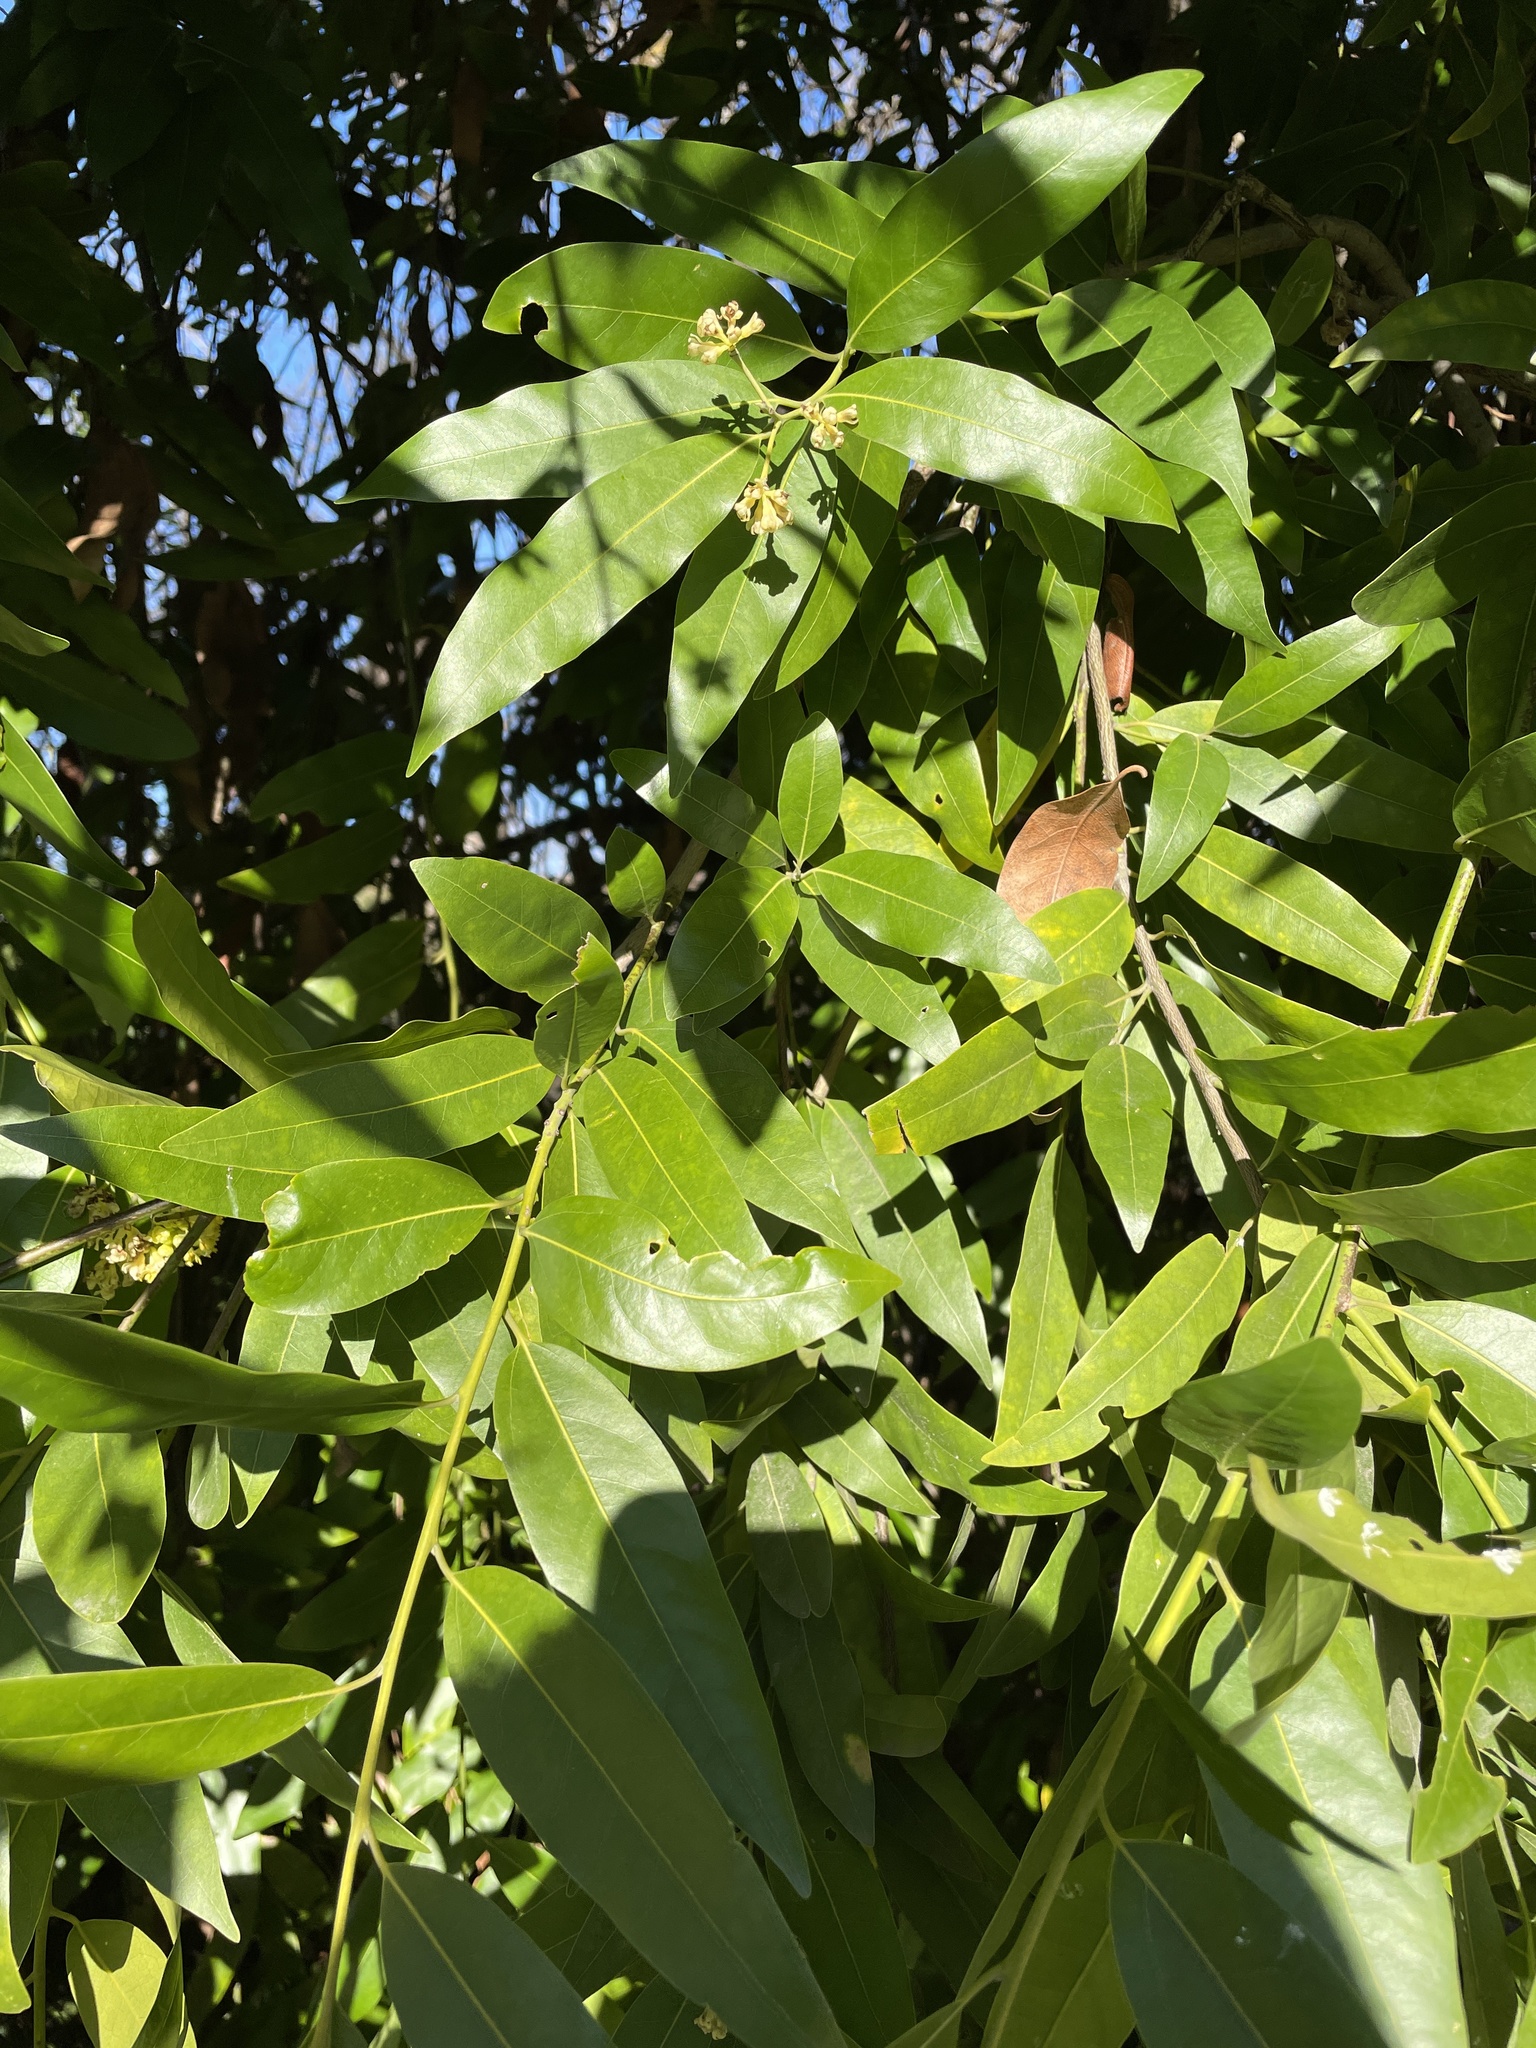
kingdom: Plantae
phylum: Tracheophyta
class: Magnoliopsida
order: Laurales
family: Lauraceae
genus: Umbellularia
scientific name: Umbellularia californica
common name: California bay
